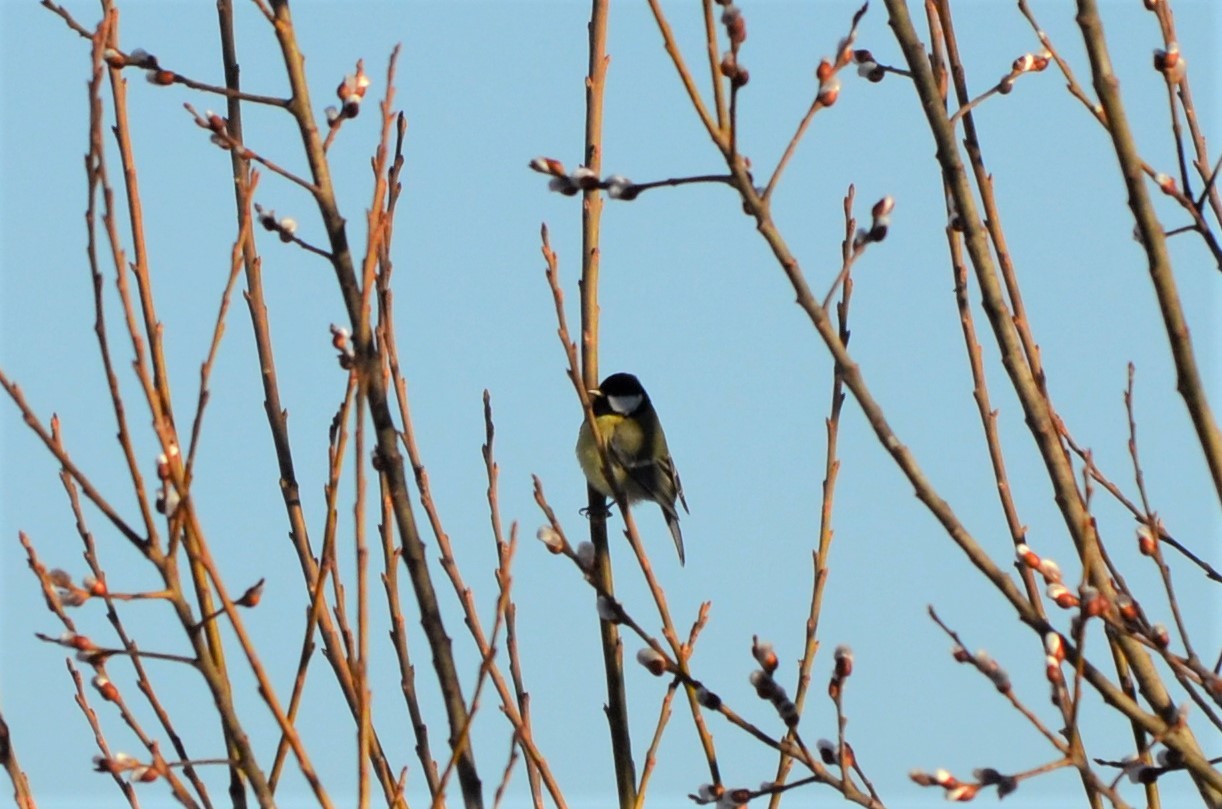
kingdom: Animalia
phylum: Chordata
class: Aves
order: Passeriformes
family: Paridae
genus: Parus
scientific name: Parus major
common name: Great tit
